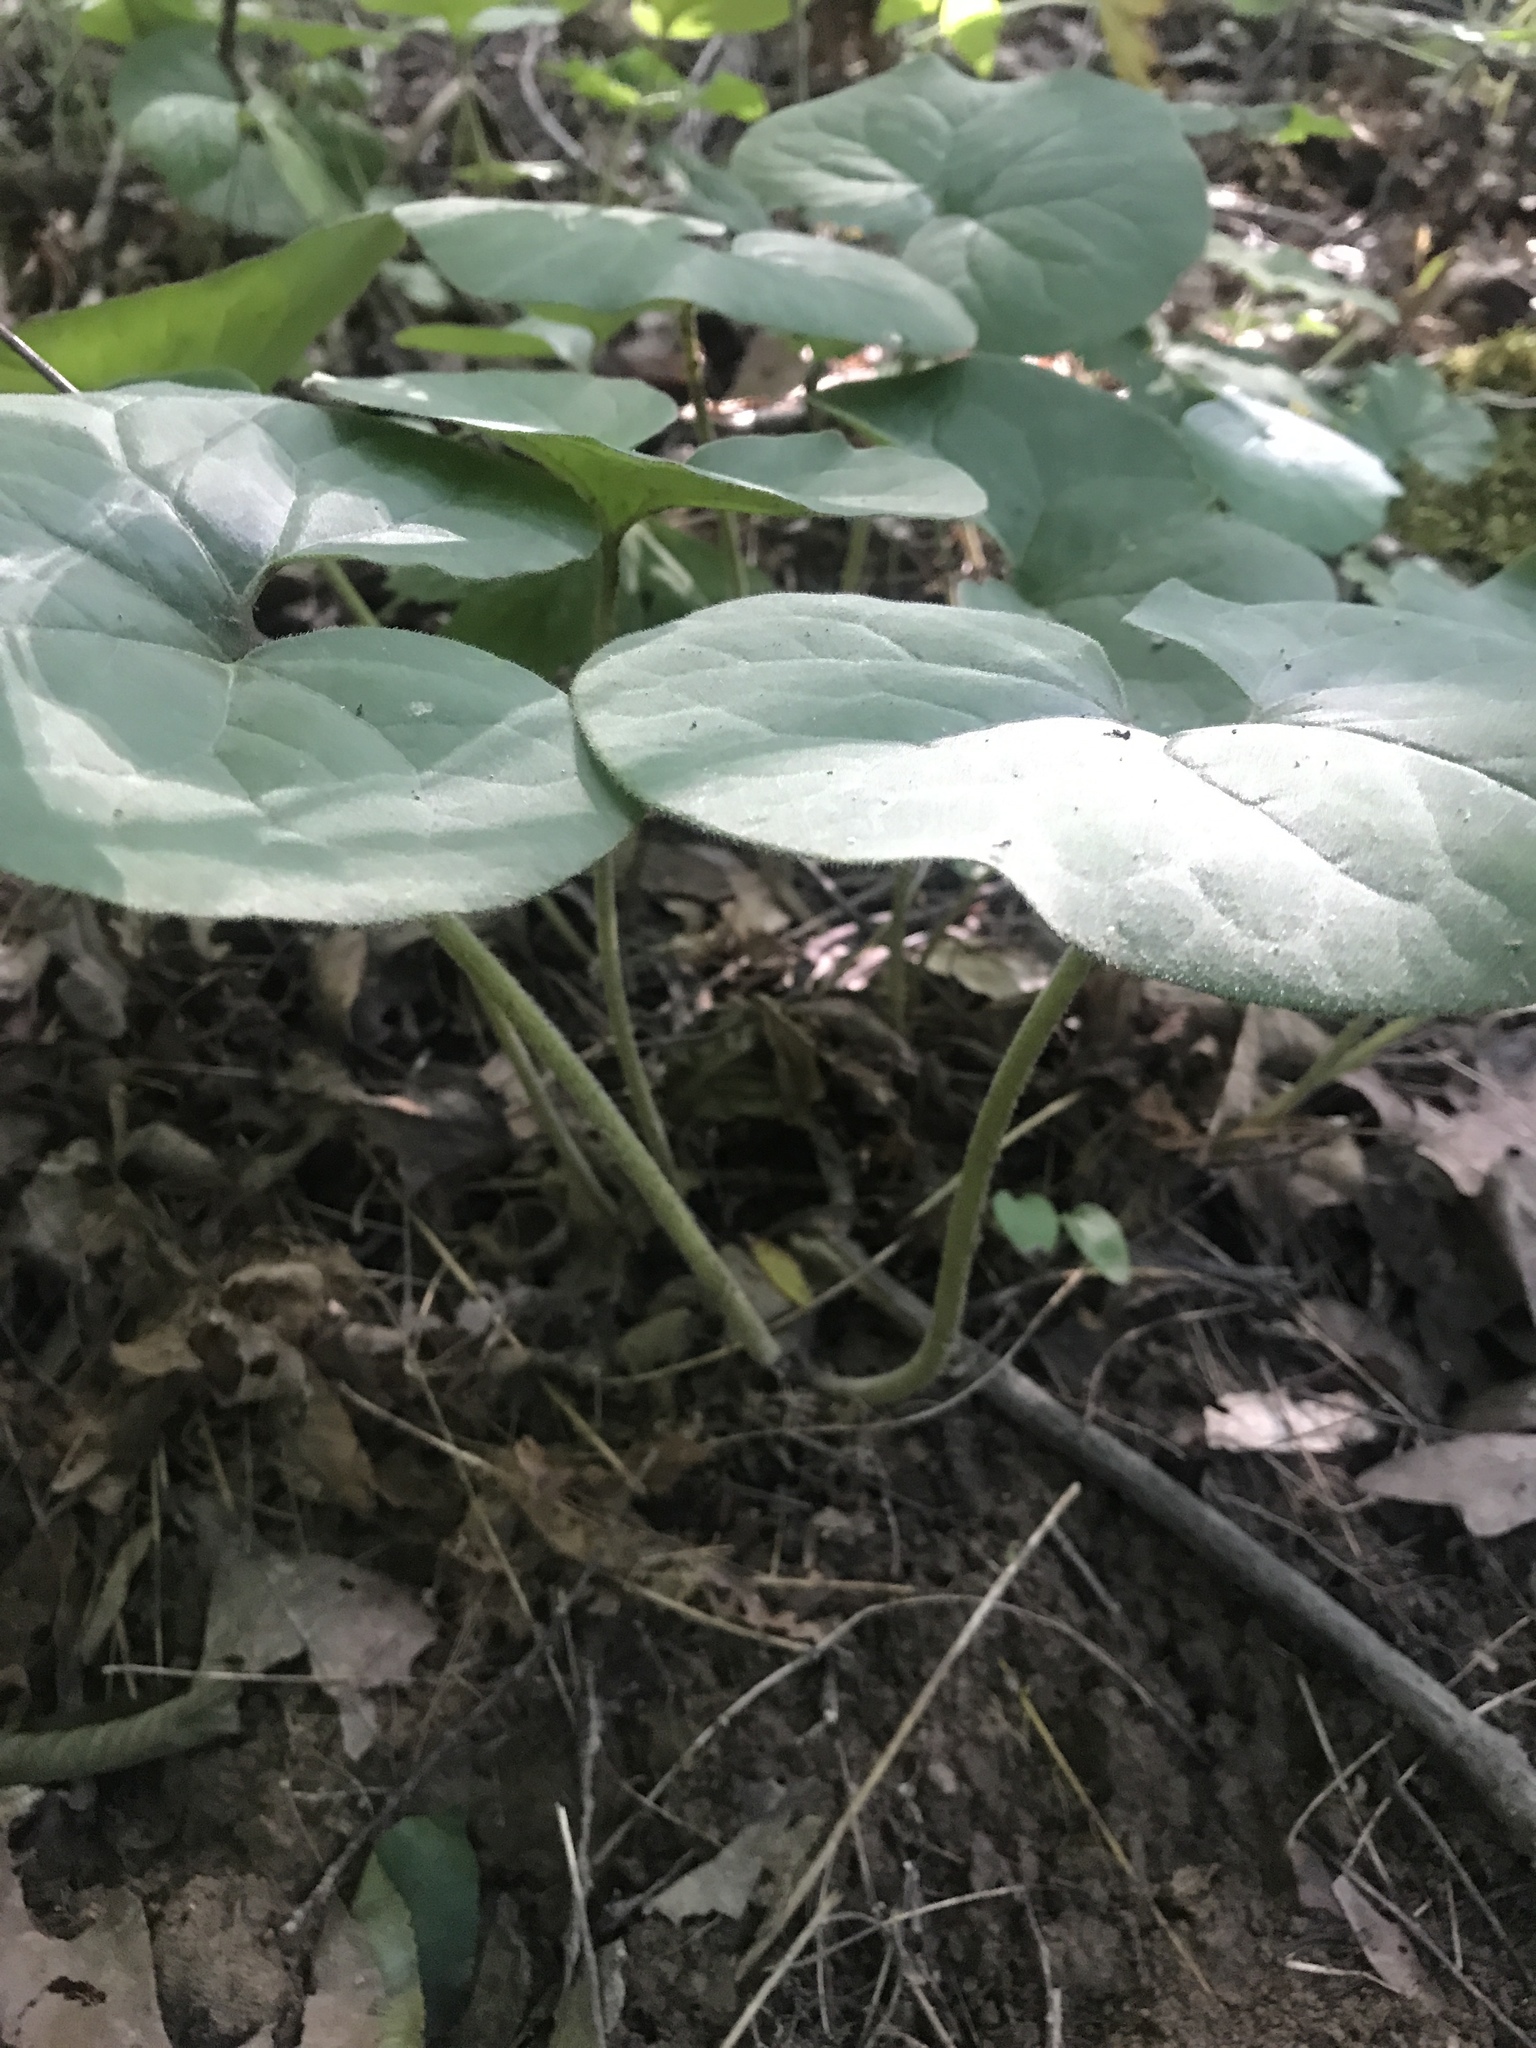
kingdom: Plantae
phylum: Tracheophyta
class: Magnoliopsida
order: Piperales
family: Aristolochiaceae
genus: Asarum
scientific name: Asarum canadense
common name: Wild ginger
